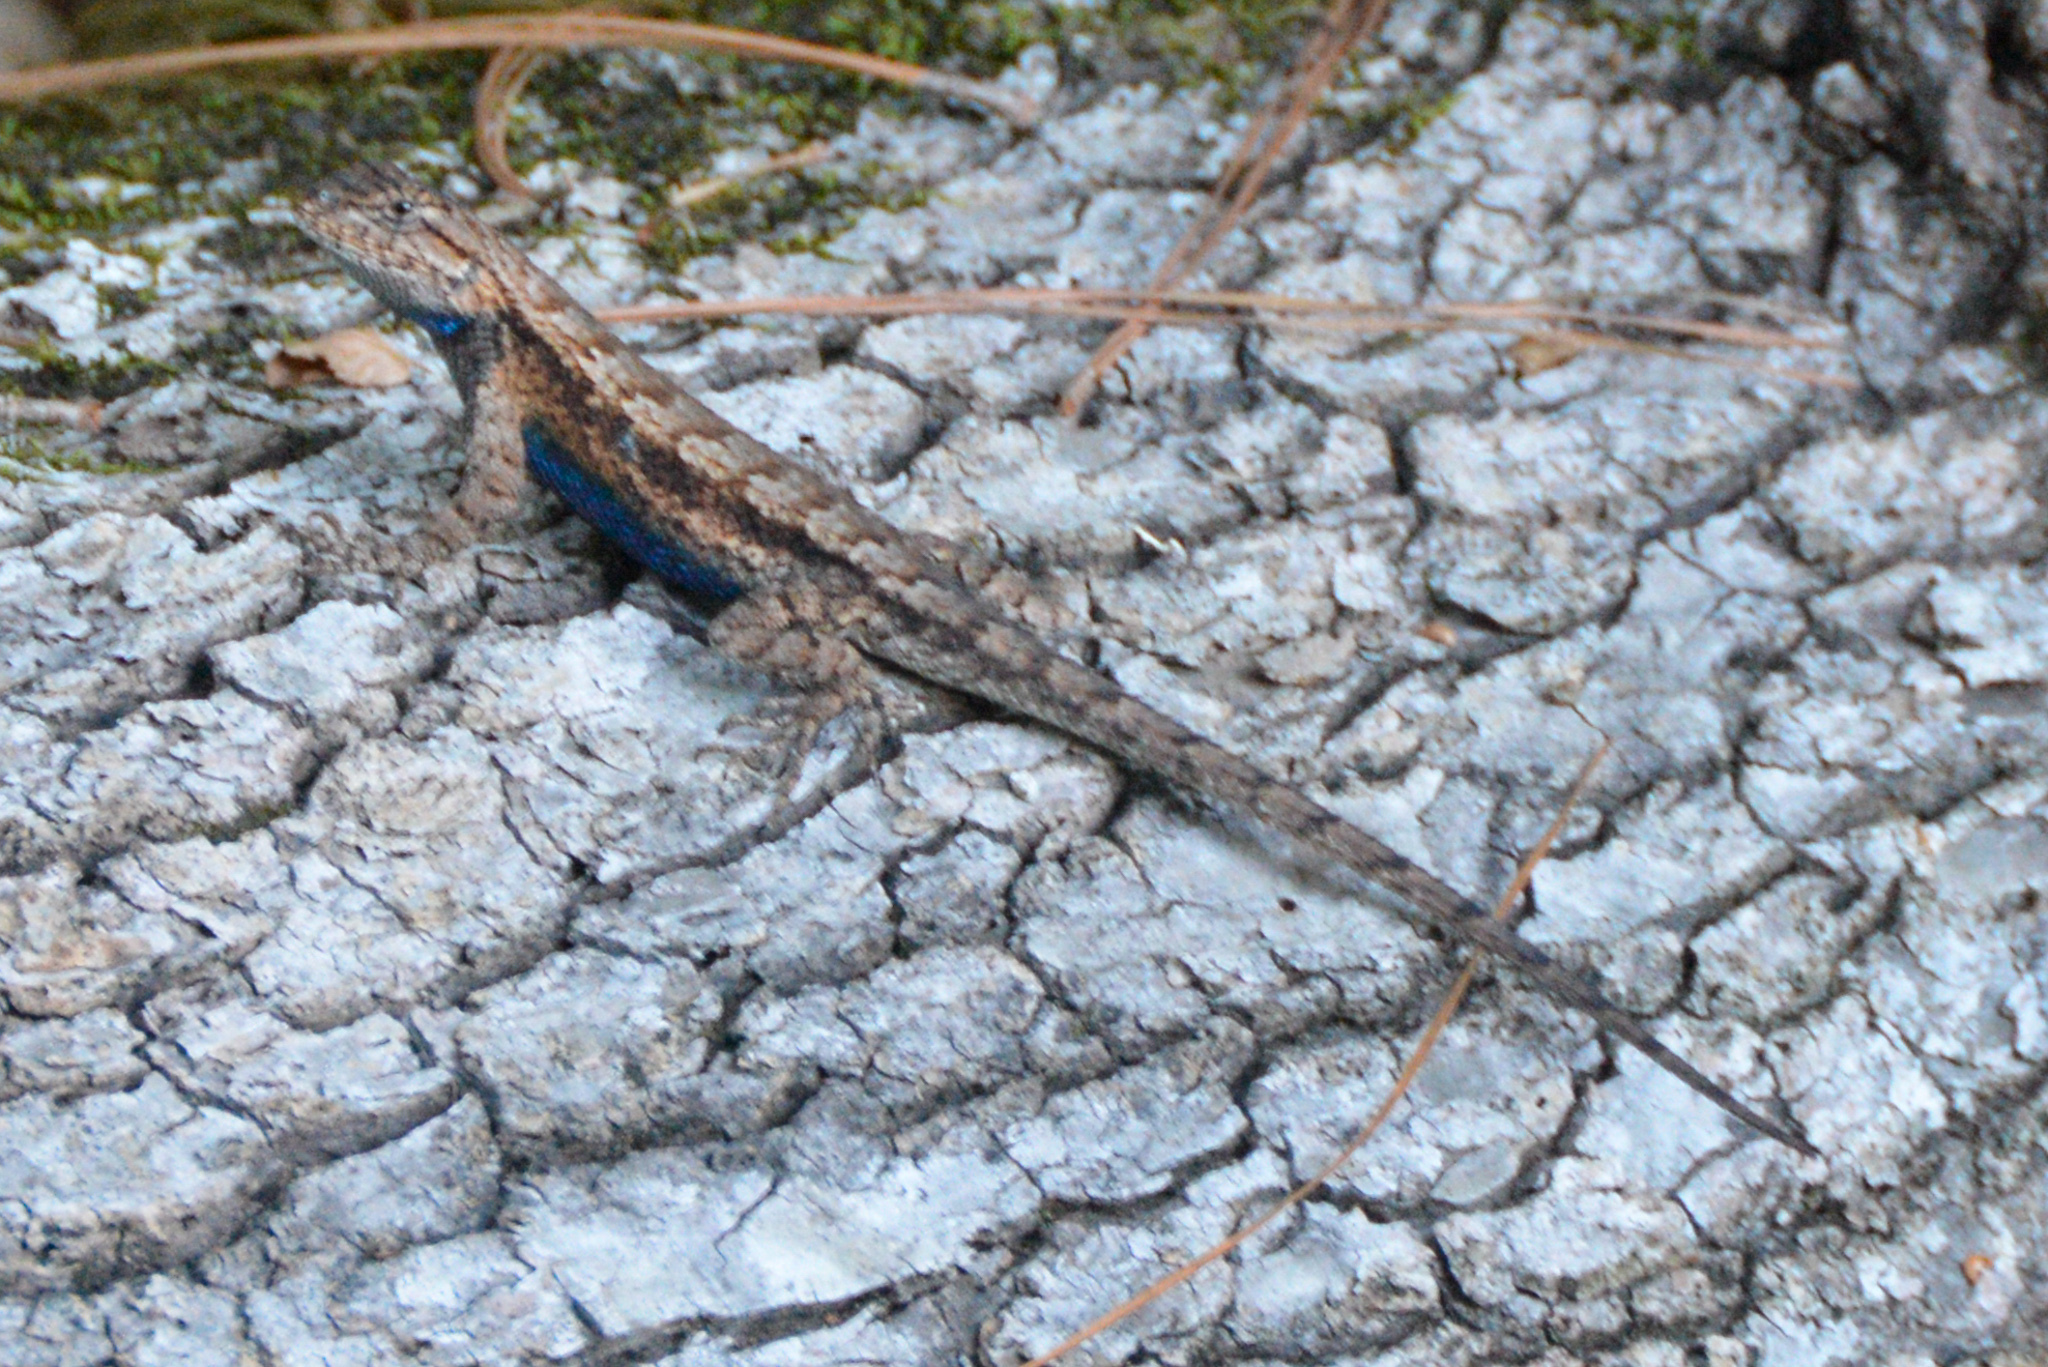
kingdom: Animalia
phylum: Chordata
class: Squamata
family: Phrynosomatidae
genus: Sceloporus
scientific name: Sceloporus consobrinus
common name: Southern prairie lizard
